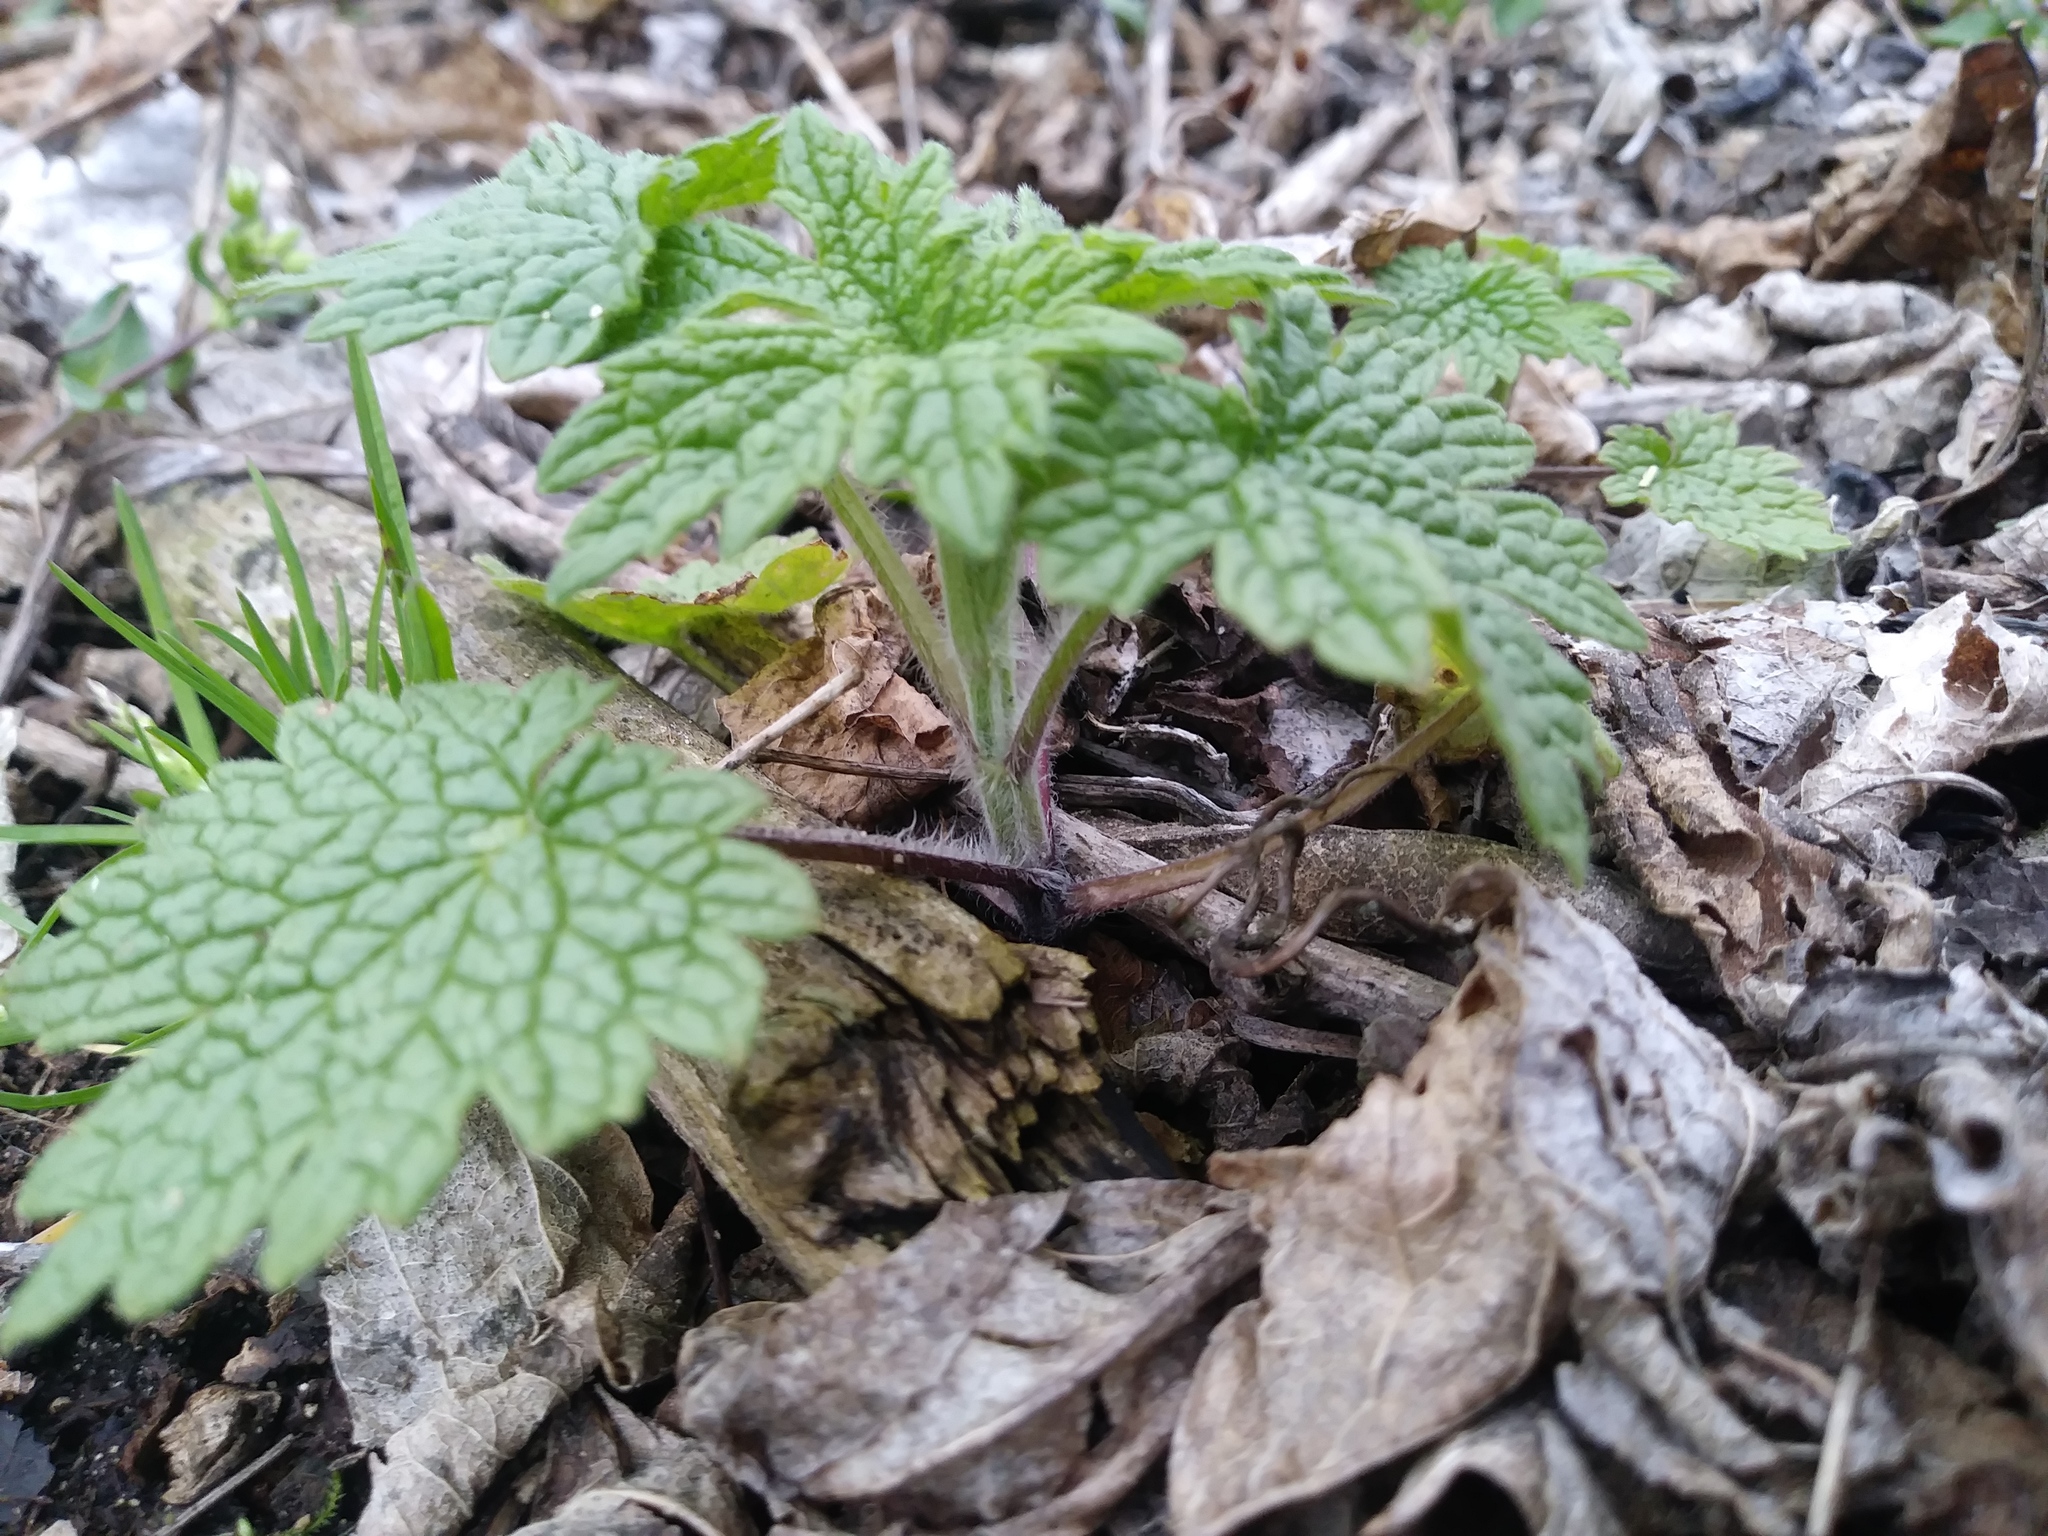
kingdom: Plantae
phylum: Tracheophyta
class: Magnoliopsida
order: Lamiales
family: Lamiaceae
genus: Leonurus
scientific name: Leonurus cardiaca
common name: Motherwort
